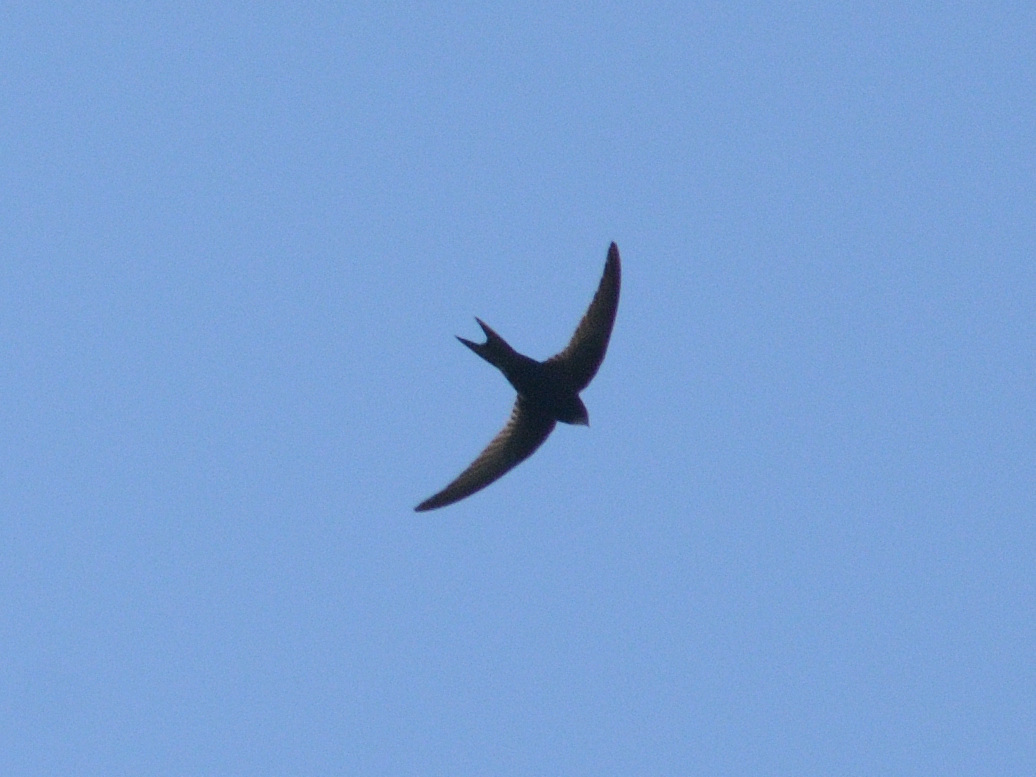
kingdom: Animalia
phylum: Chordata
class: Aves
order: Apodiformes
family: Apodidae
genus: Apus
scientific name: Apus apus
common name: Common swift
